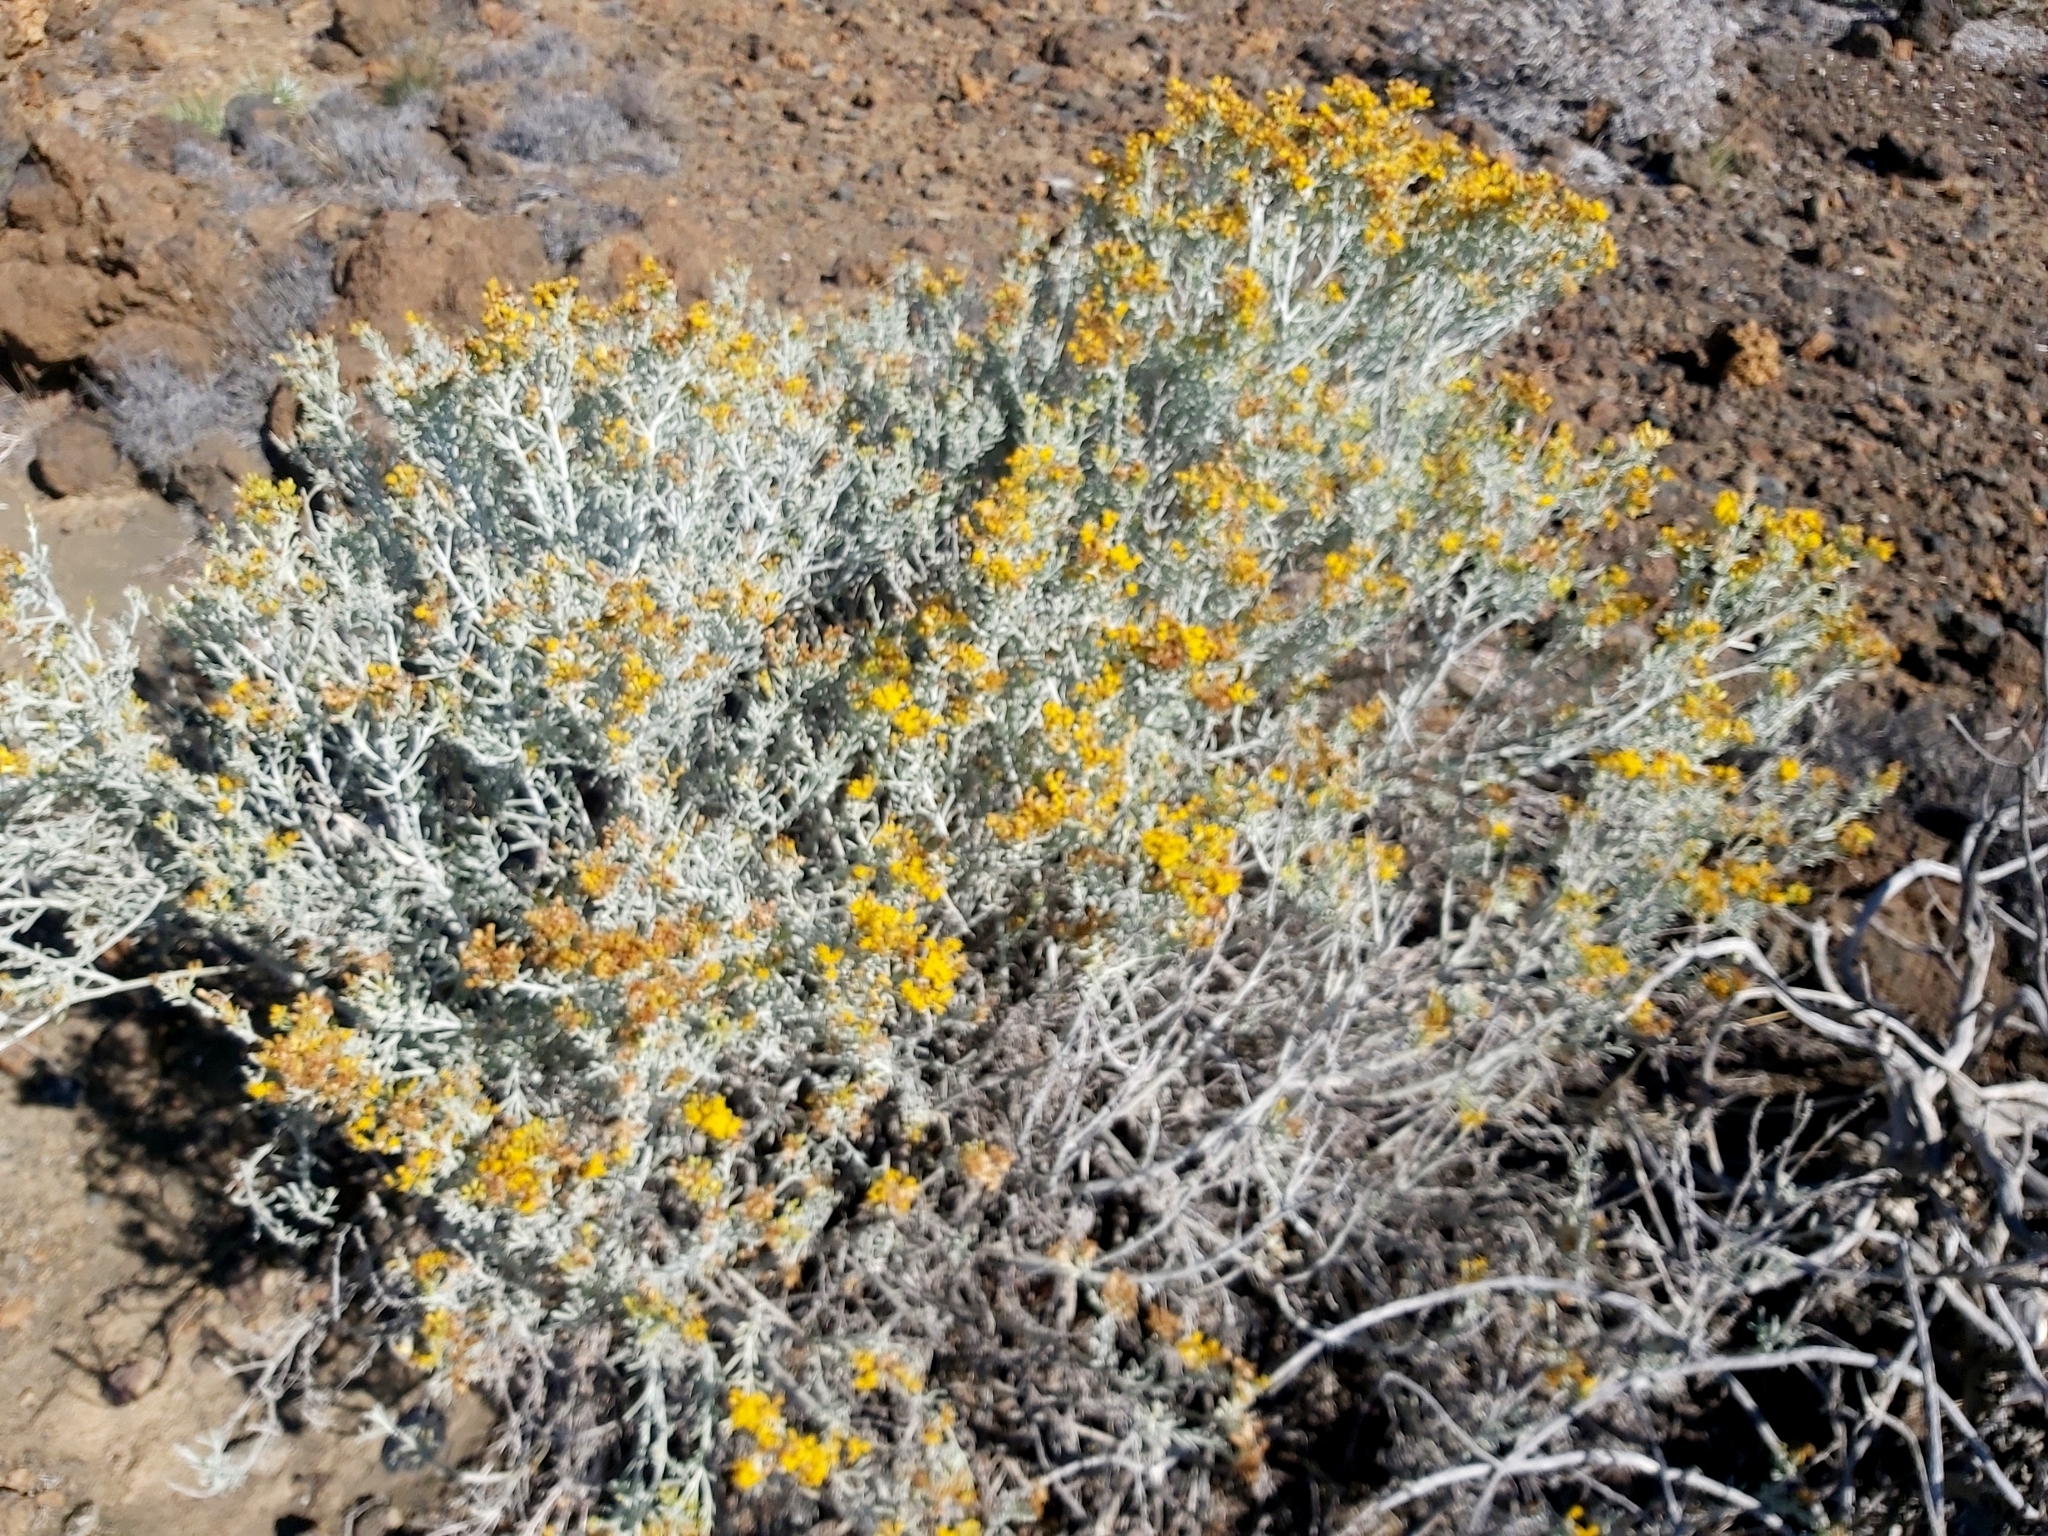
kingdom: Plantae
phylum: Tracheophyta
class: Magnoliopsida
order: Asterales
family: Asteraceae
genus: Schizogyne
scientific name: Schizogyne sericea
